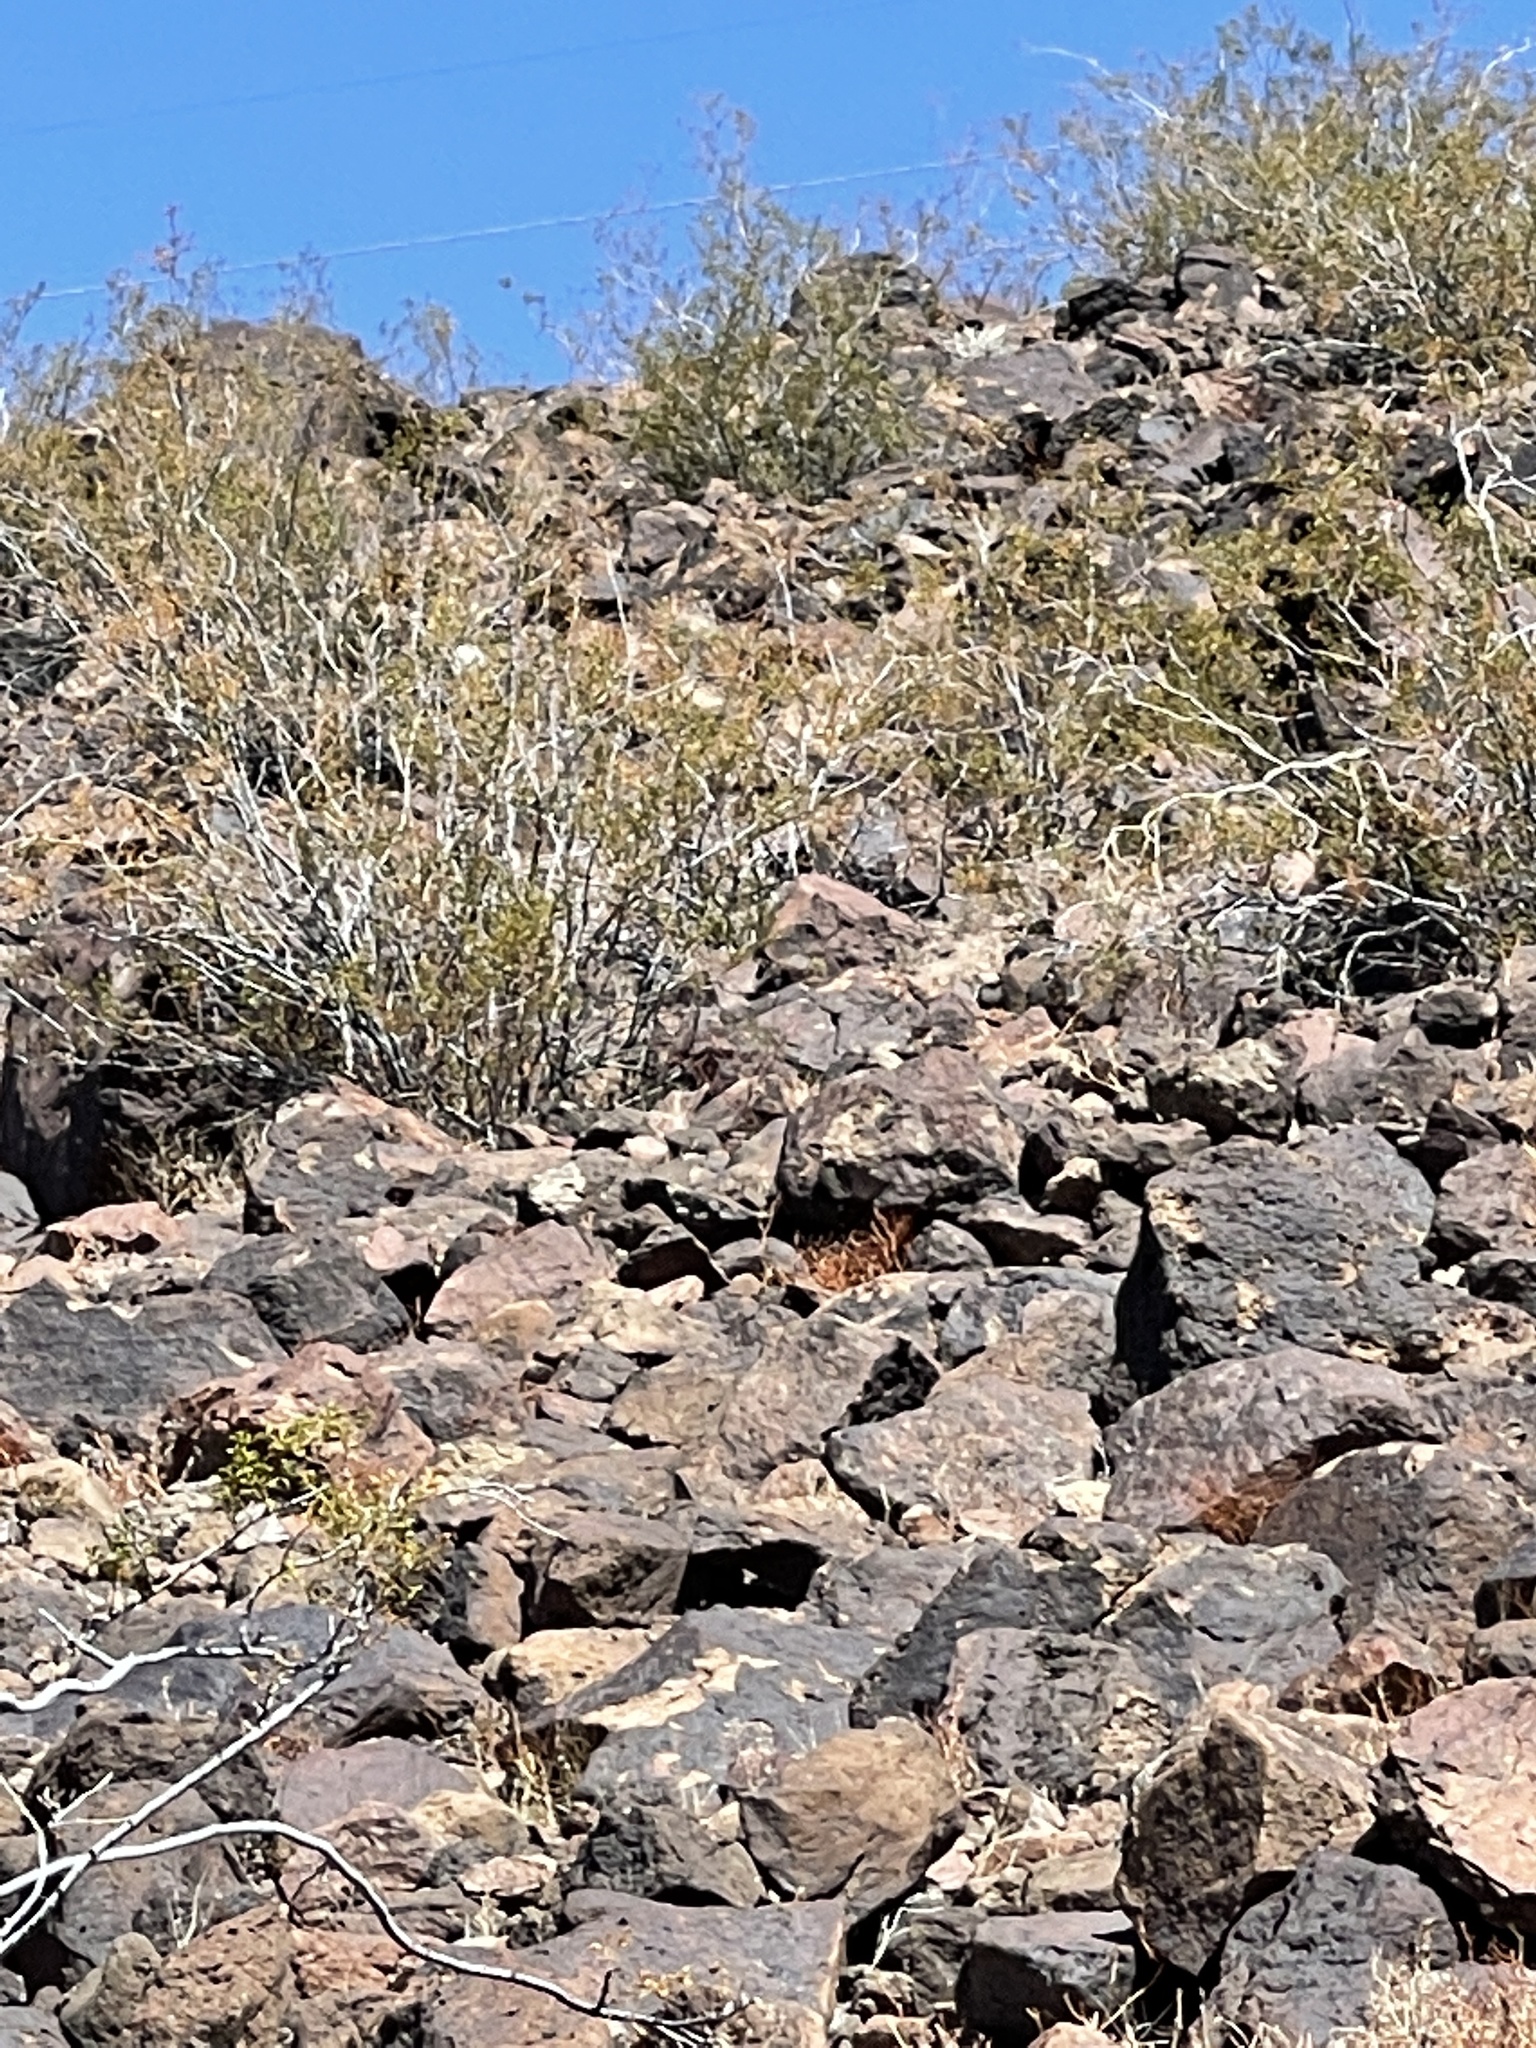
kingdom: Plantae
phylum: Tracheophyta
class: Magnoliopsida
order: Zygophyllales
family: Zygophyllaceae
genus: Larrea
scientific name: Larrea tridentata
